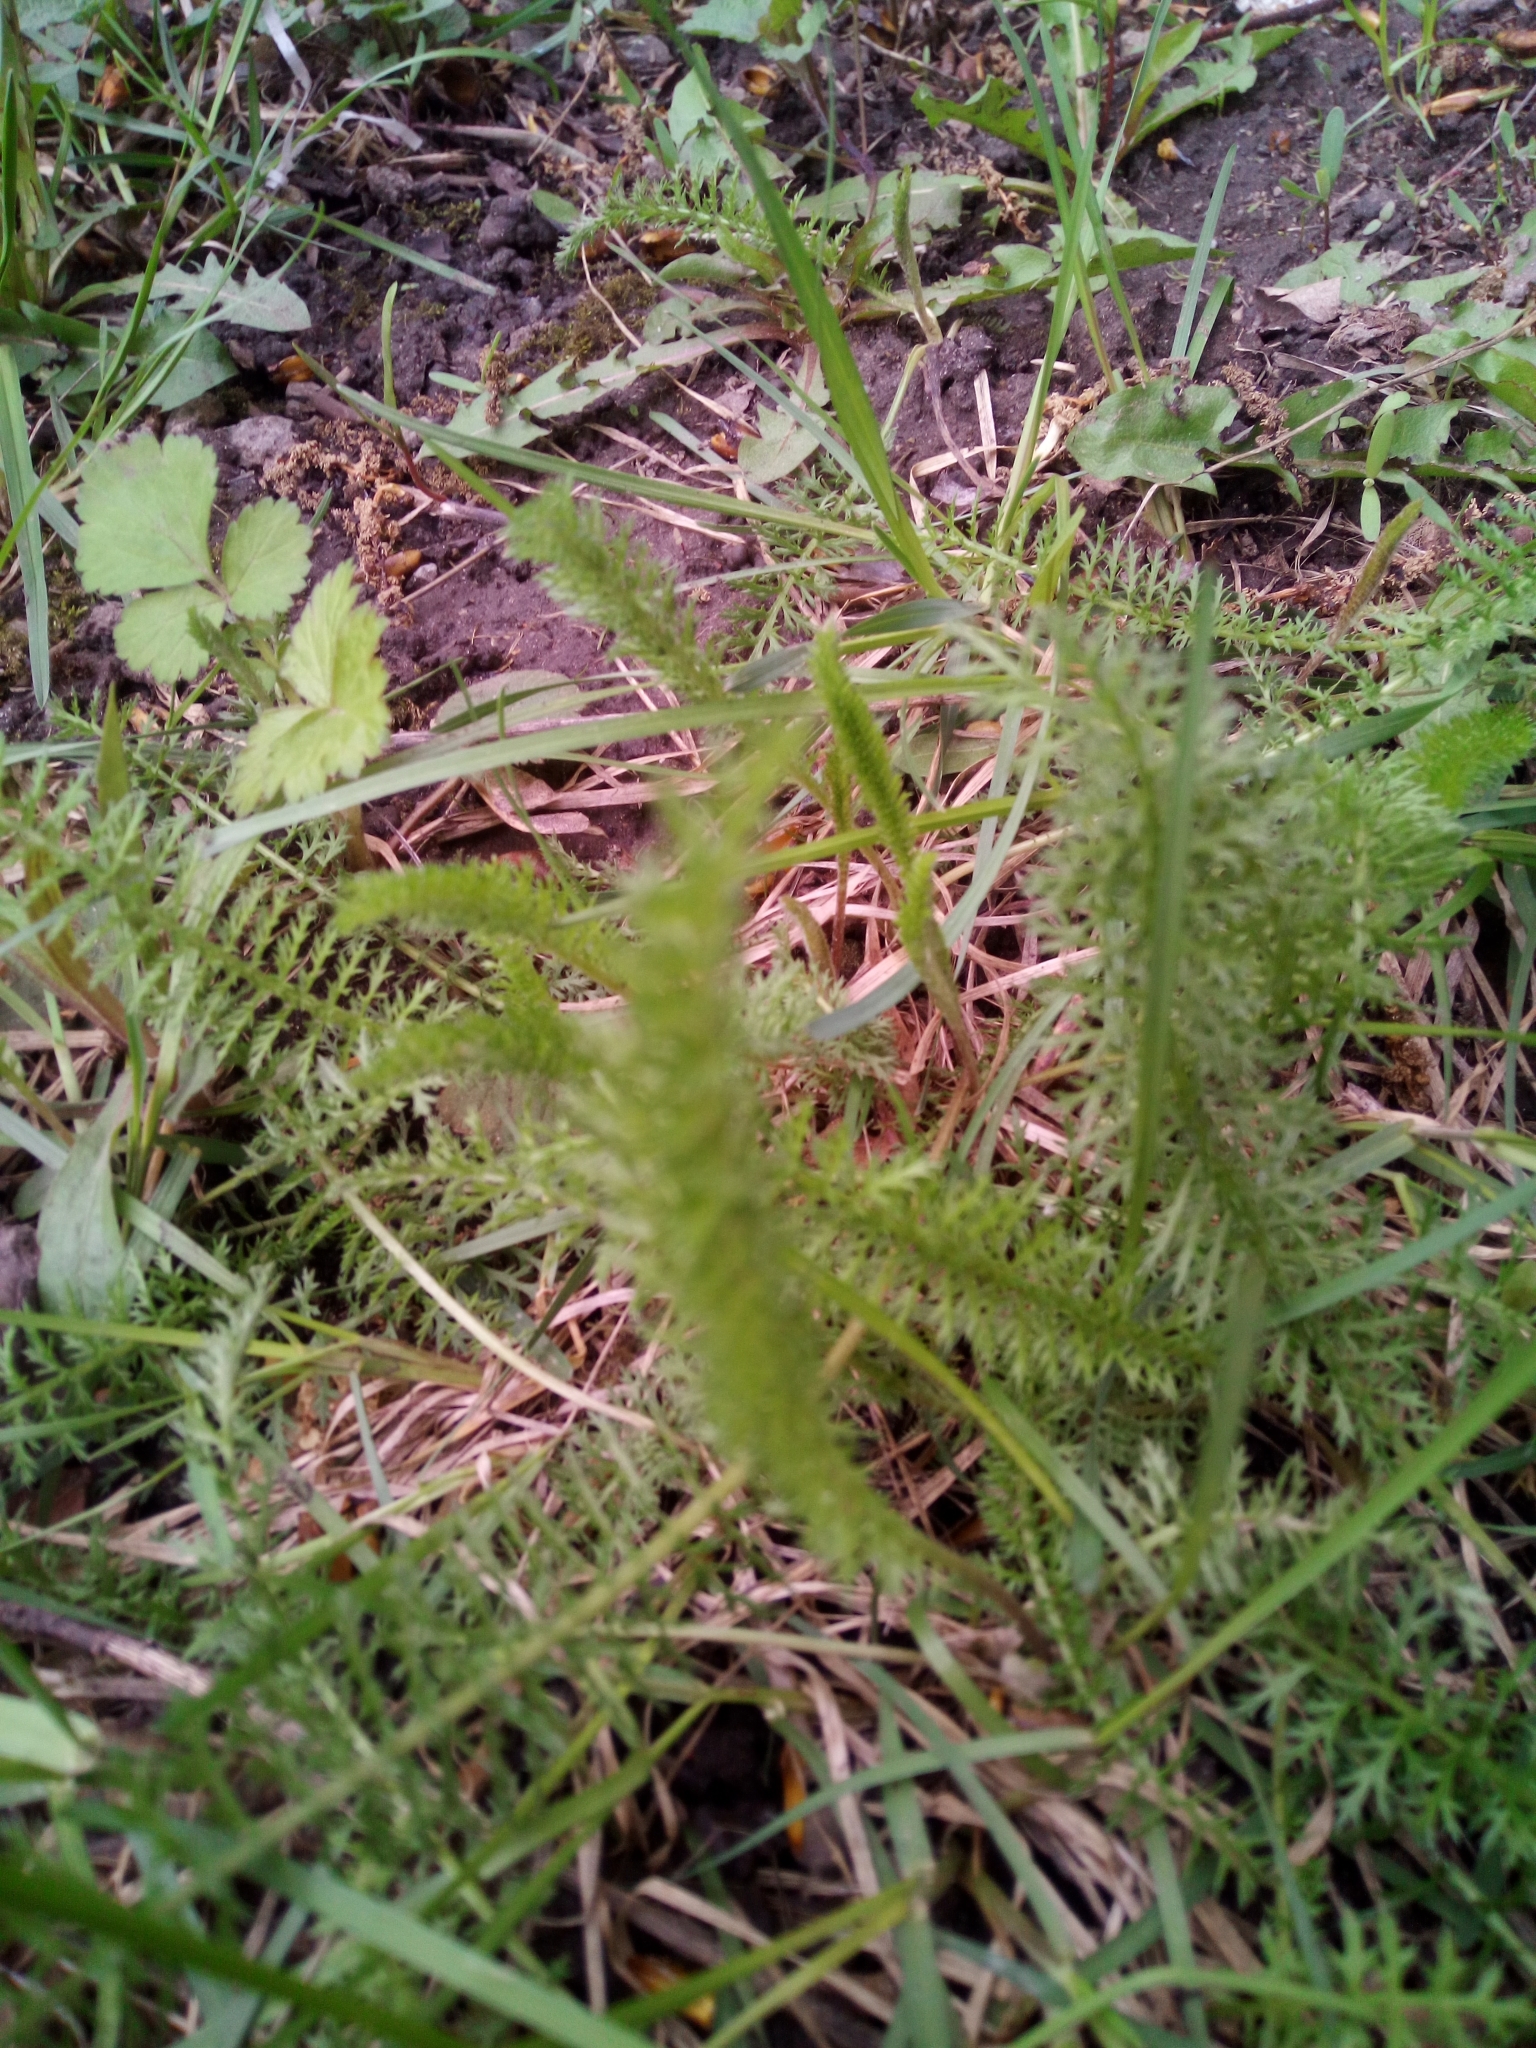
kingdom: Plantae
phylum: Tracheophyta
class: Magnoliopsida
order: Asterales
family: Asteraceae
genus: Achillea
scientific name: Achillea millefolium
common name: Yarrow
